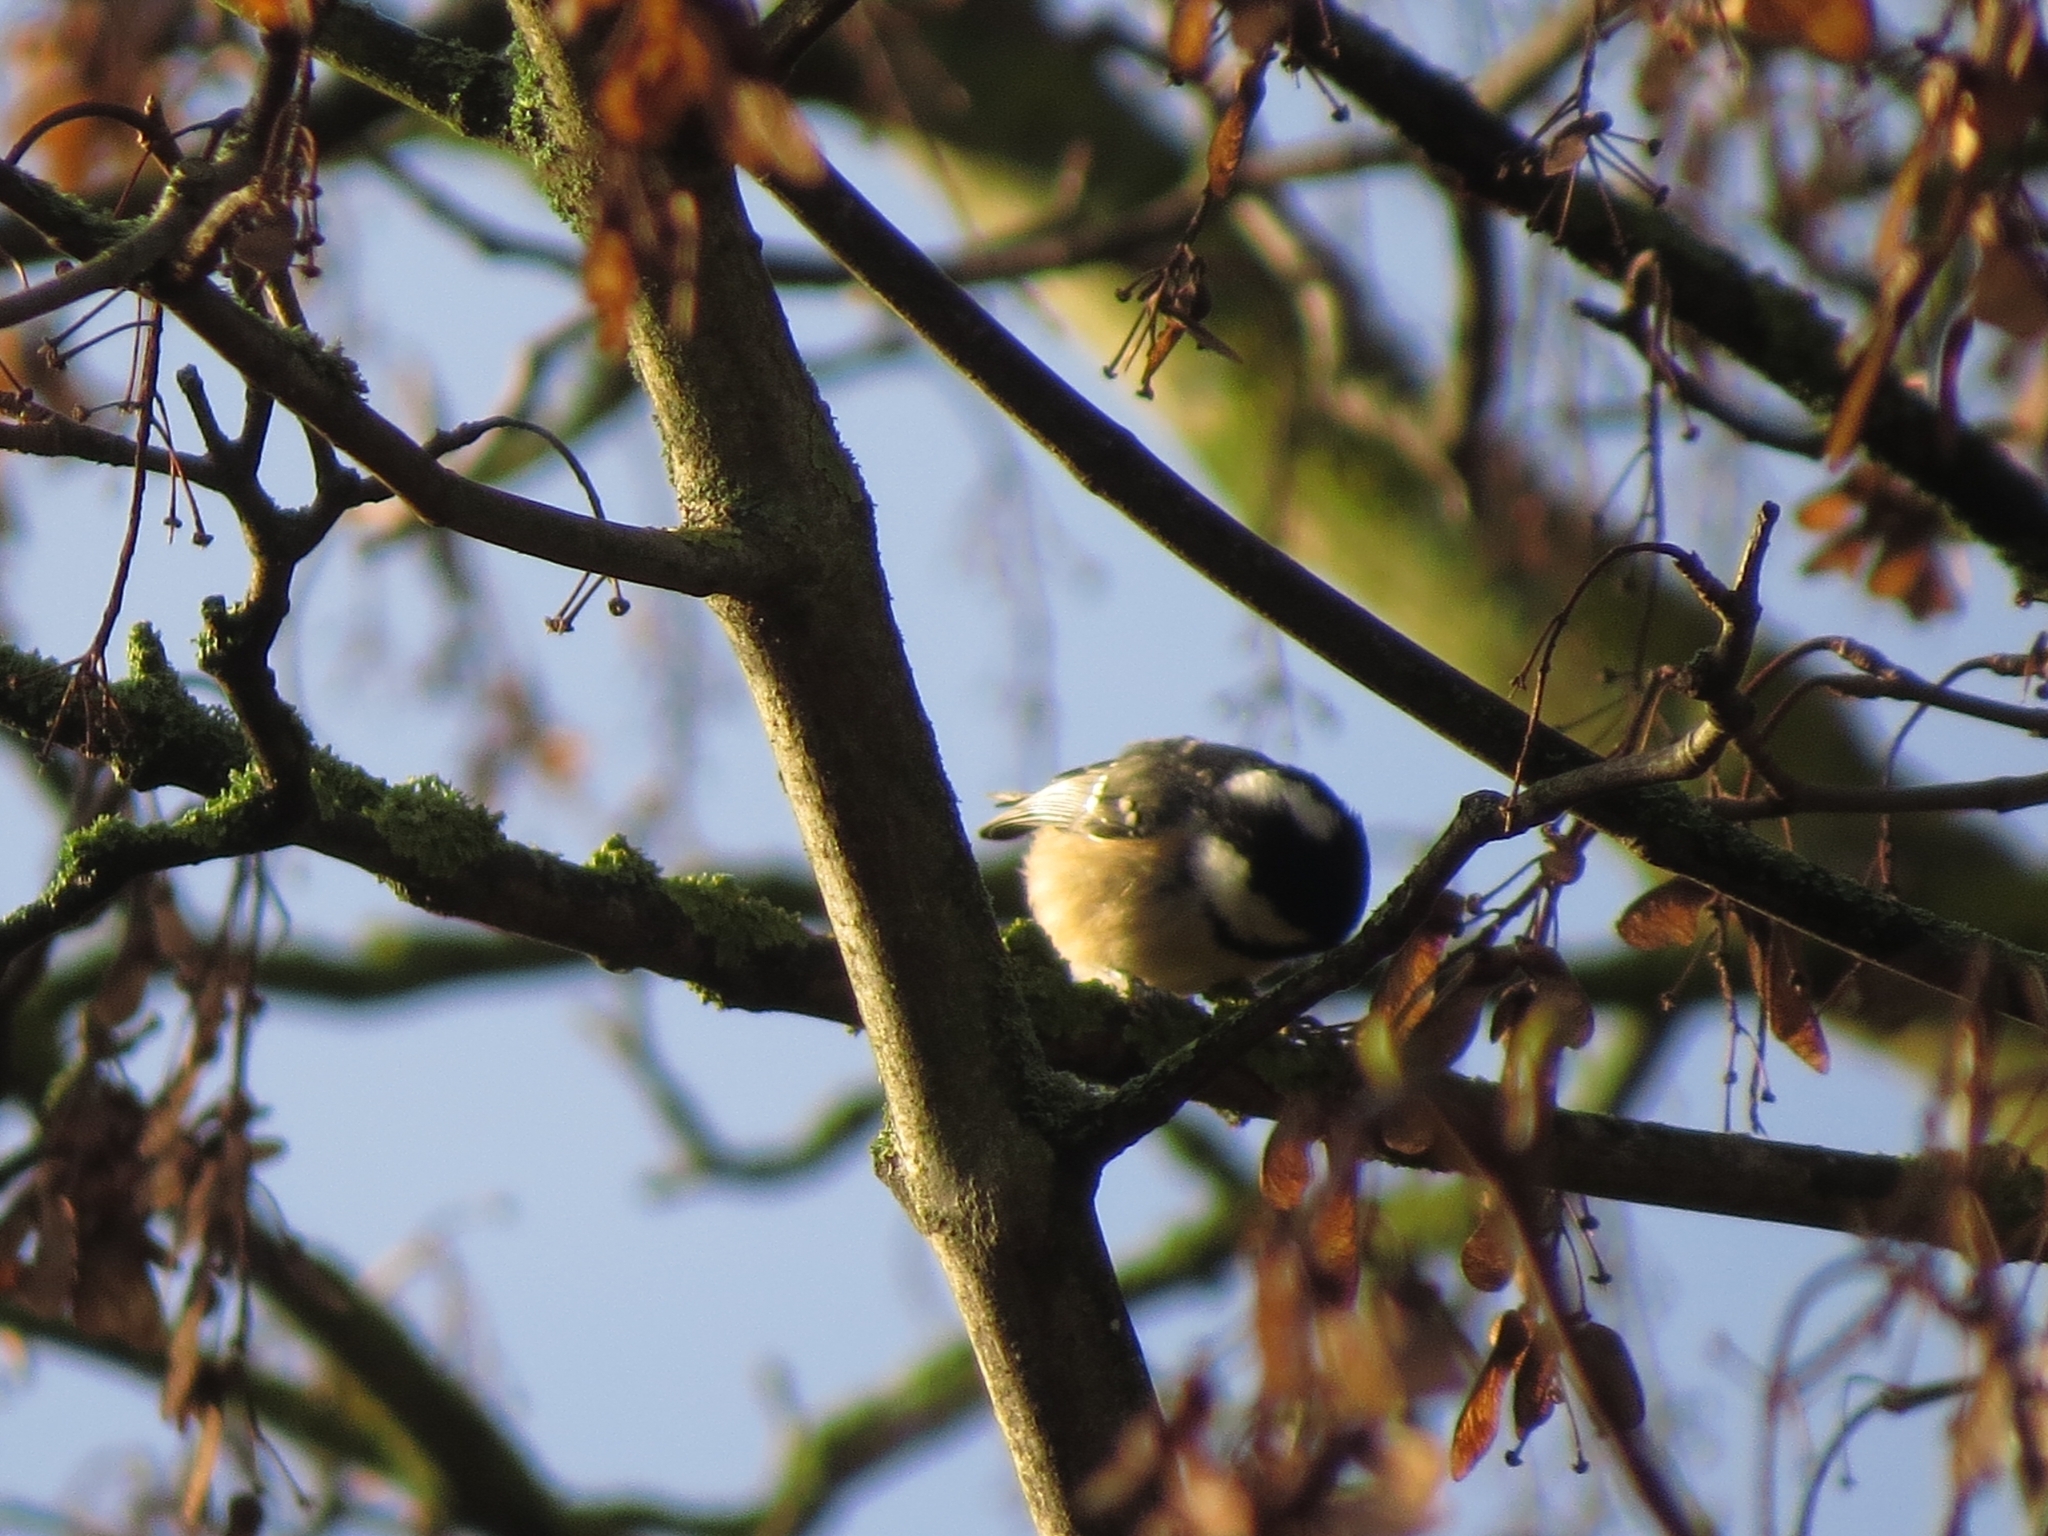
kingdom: Animalia
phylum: Chordata
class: Aves
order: Passeriformes
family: Paridae
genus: Periparus
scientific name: Periparus ater
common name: Coal tit
